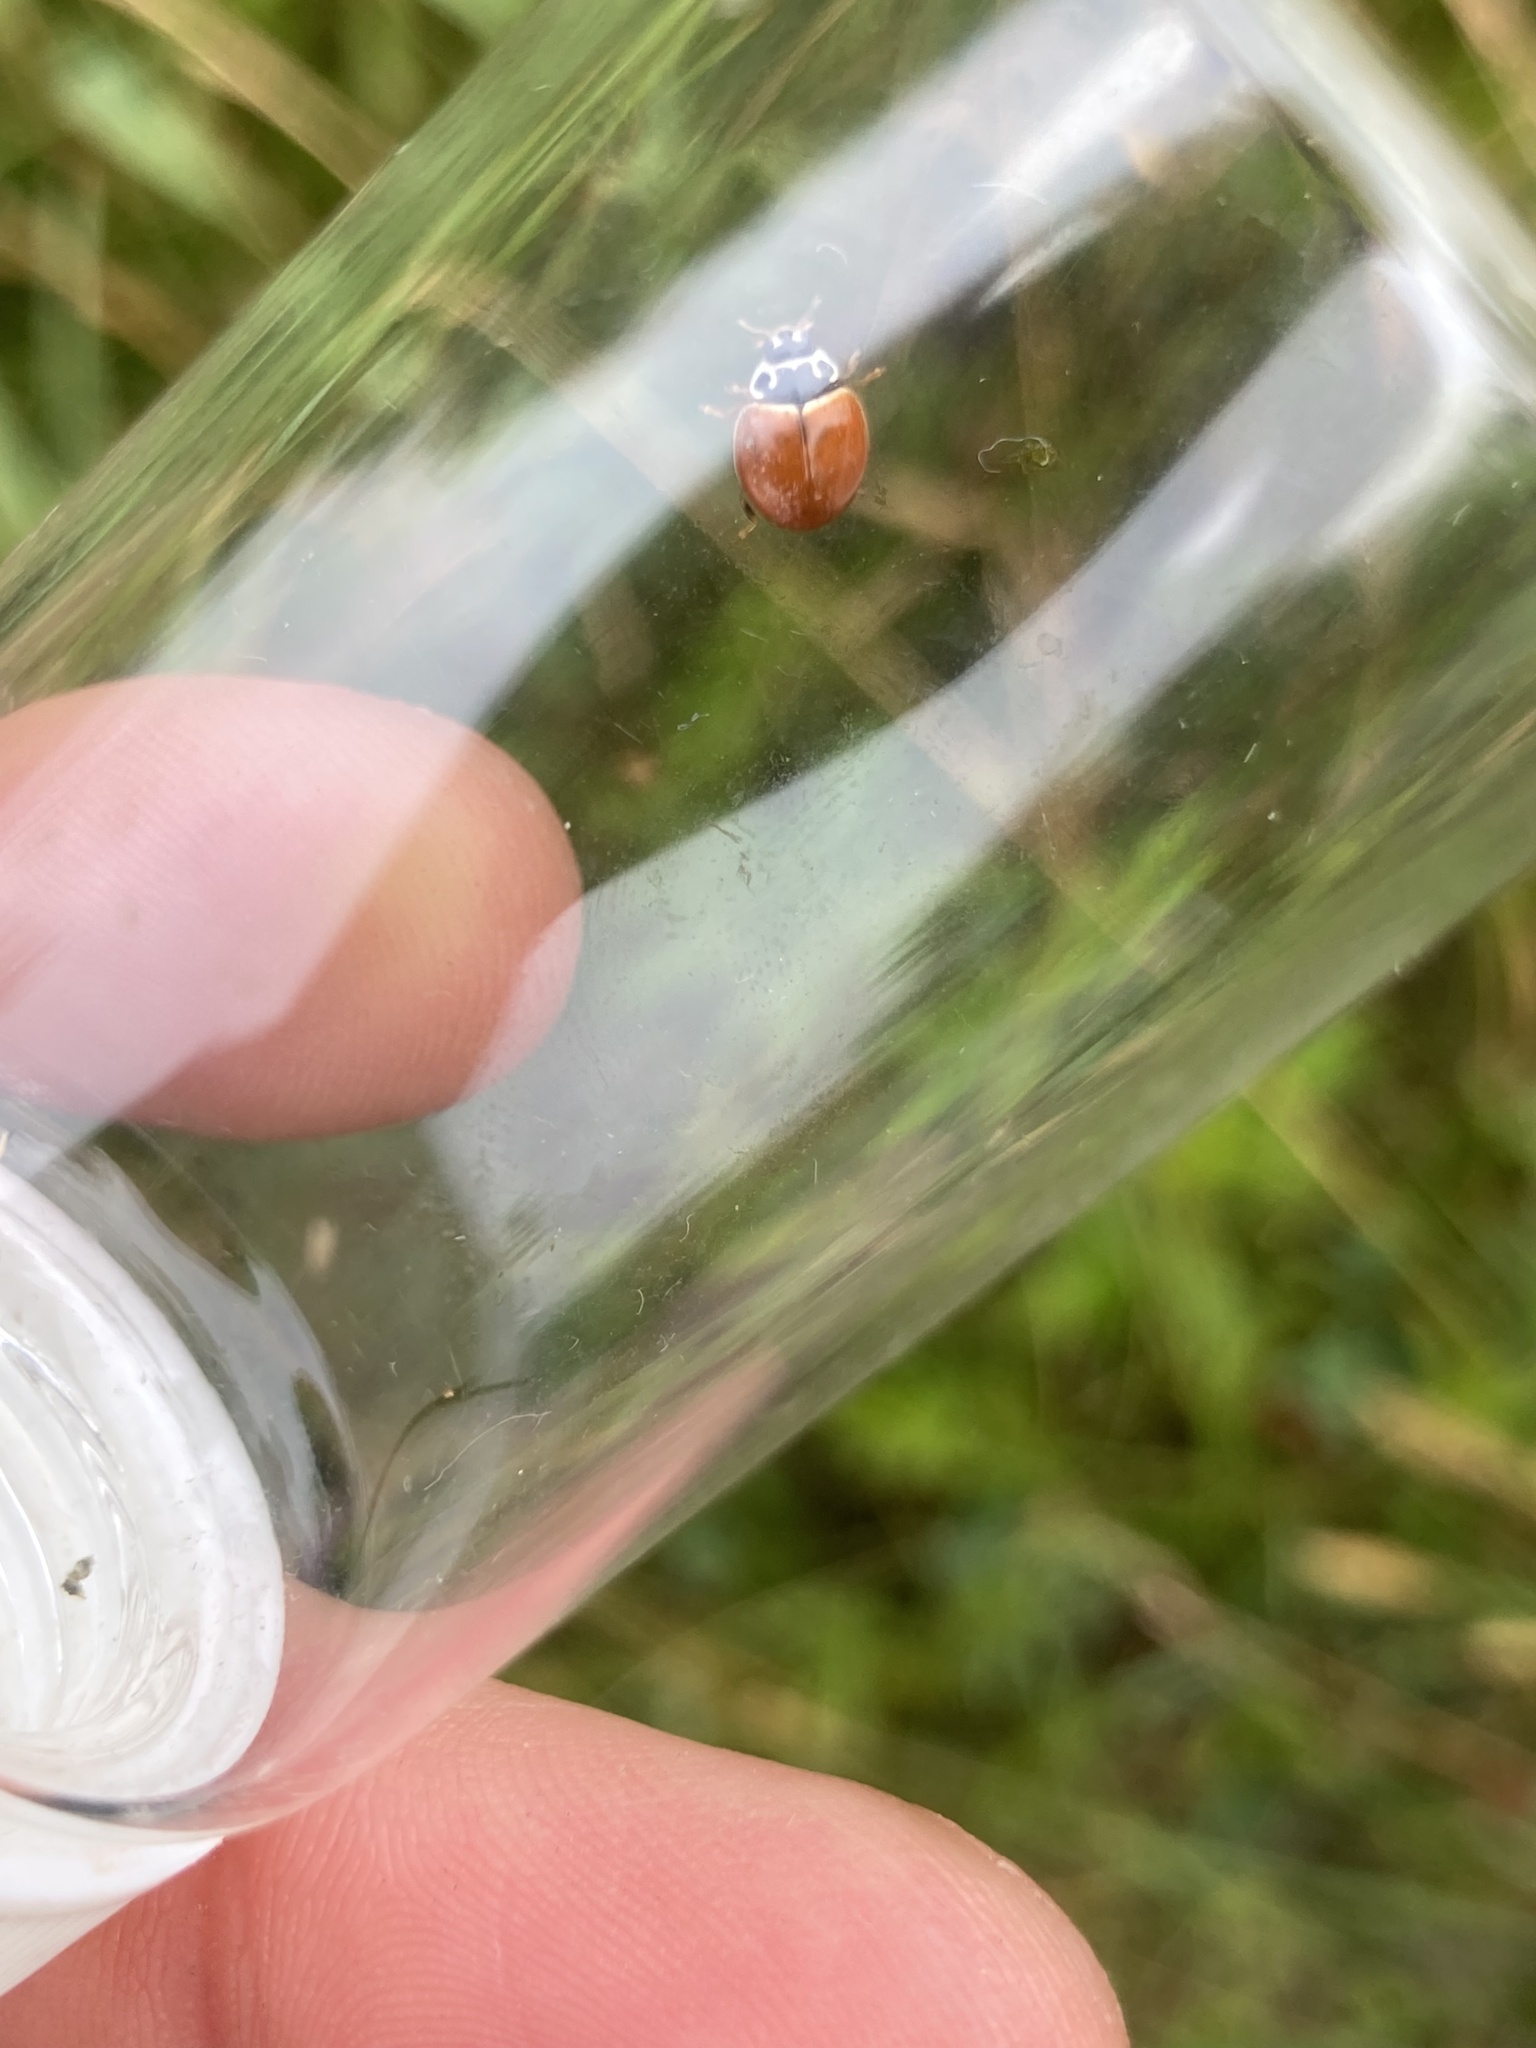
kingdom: Animalia
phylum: Arthropoda
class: Insecta
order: Coleoptera
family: Coccinellidae
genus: Cycloneda
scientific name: Cycloneda munda
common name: Polished lady beetle
